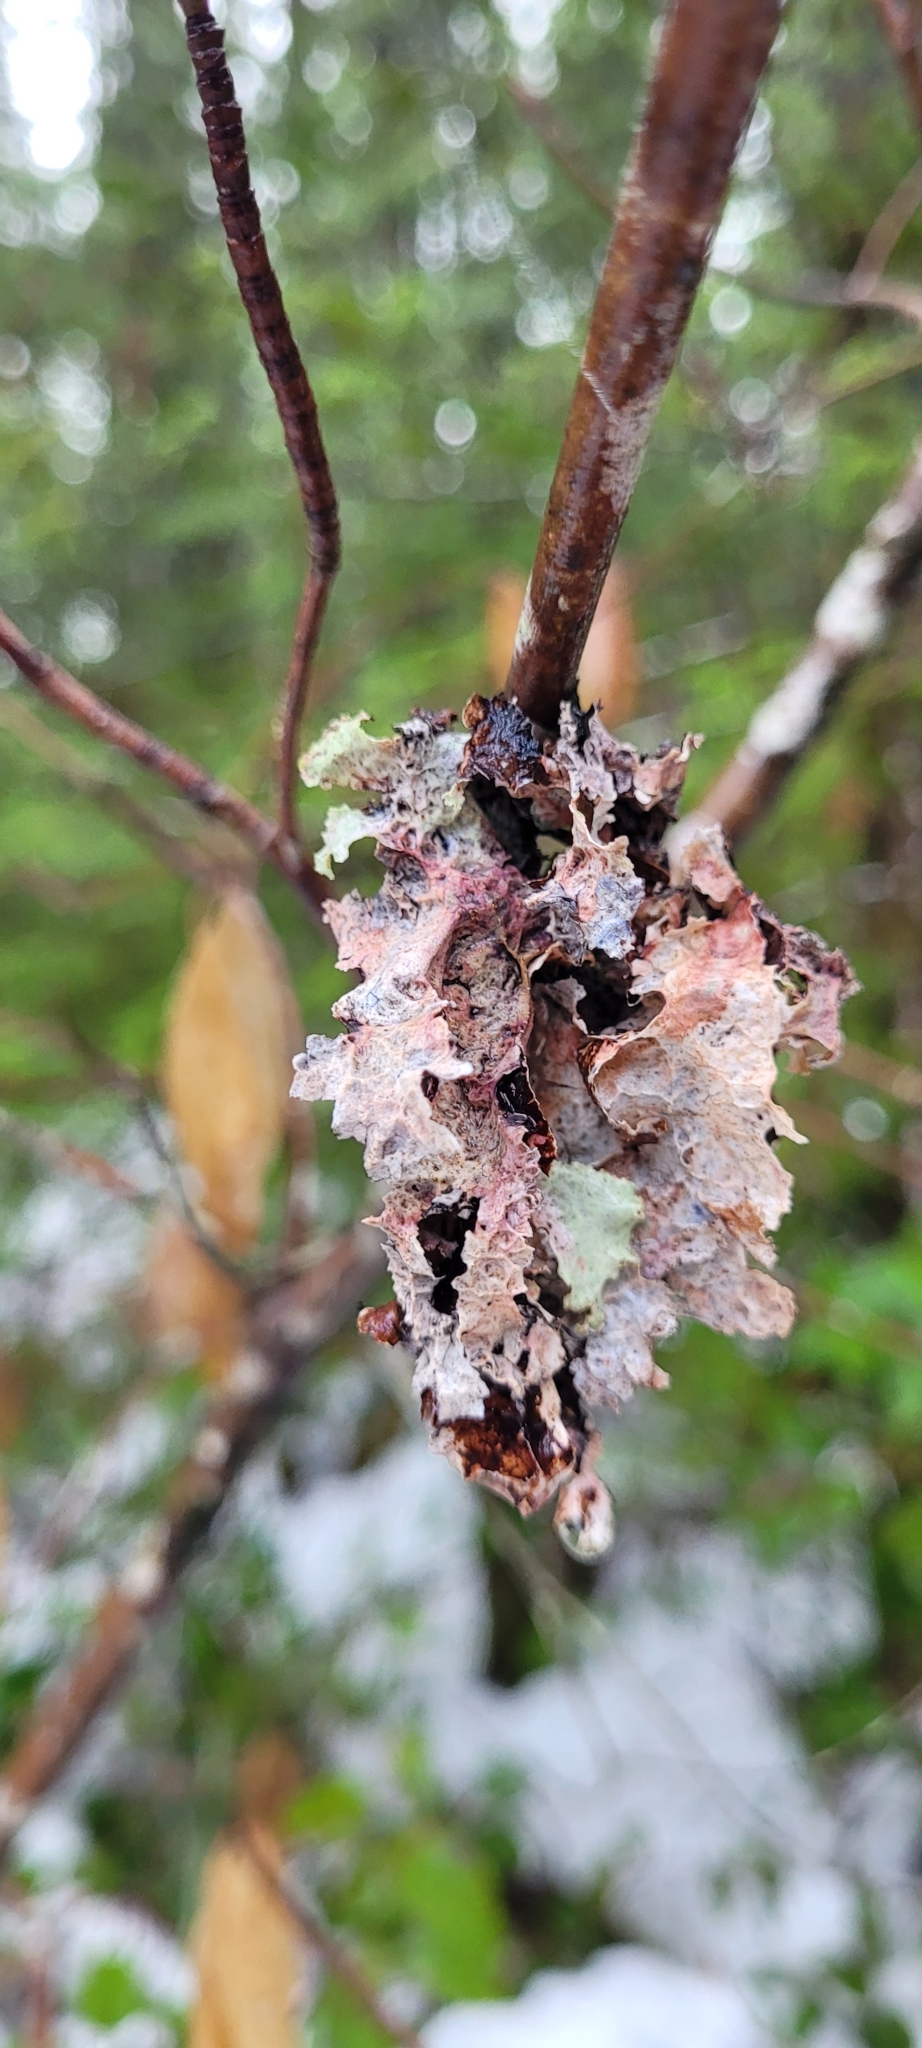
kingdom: Fungi
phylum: Ascomycota
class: Lecanoromycetes
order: Lecanorales
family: Parmeliaceae
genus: Platismatia
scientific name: Platismatia glauca
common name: Varied rag lichen
